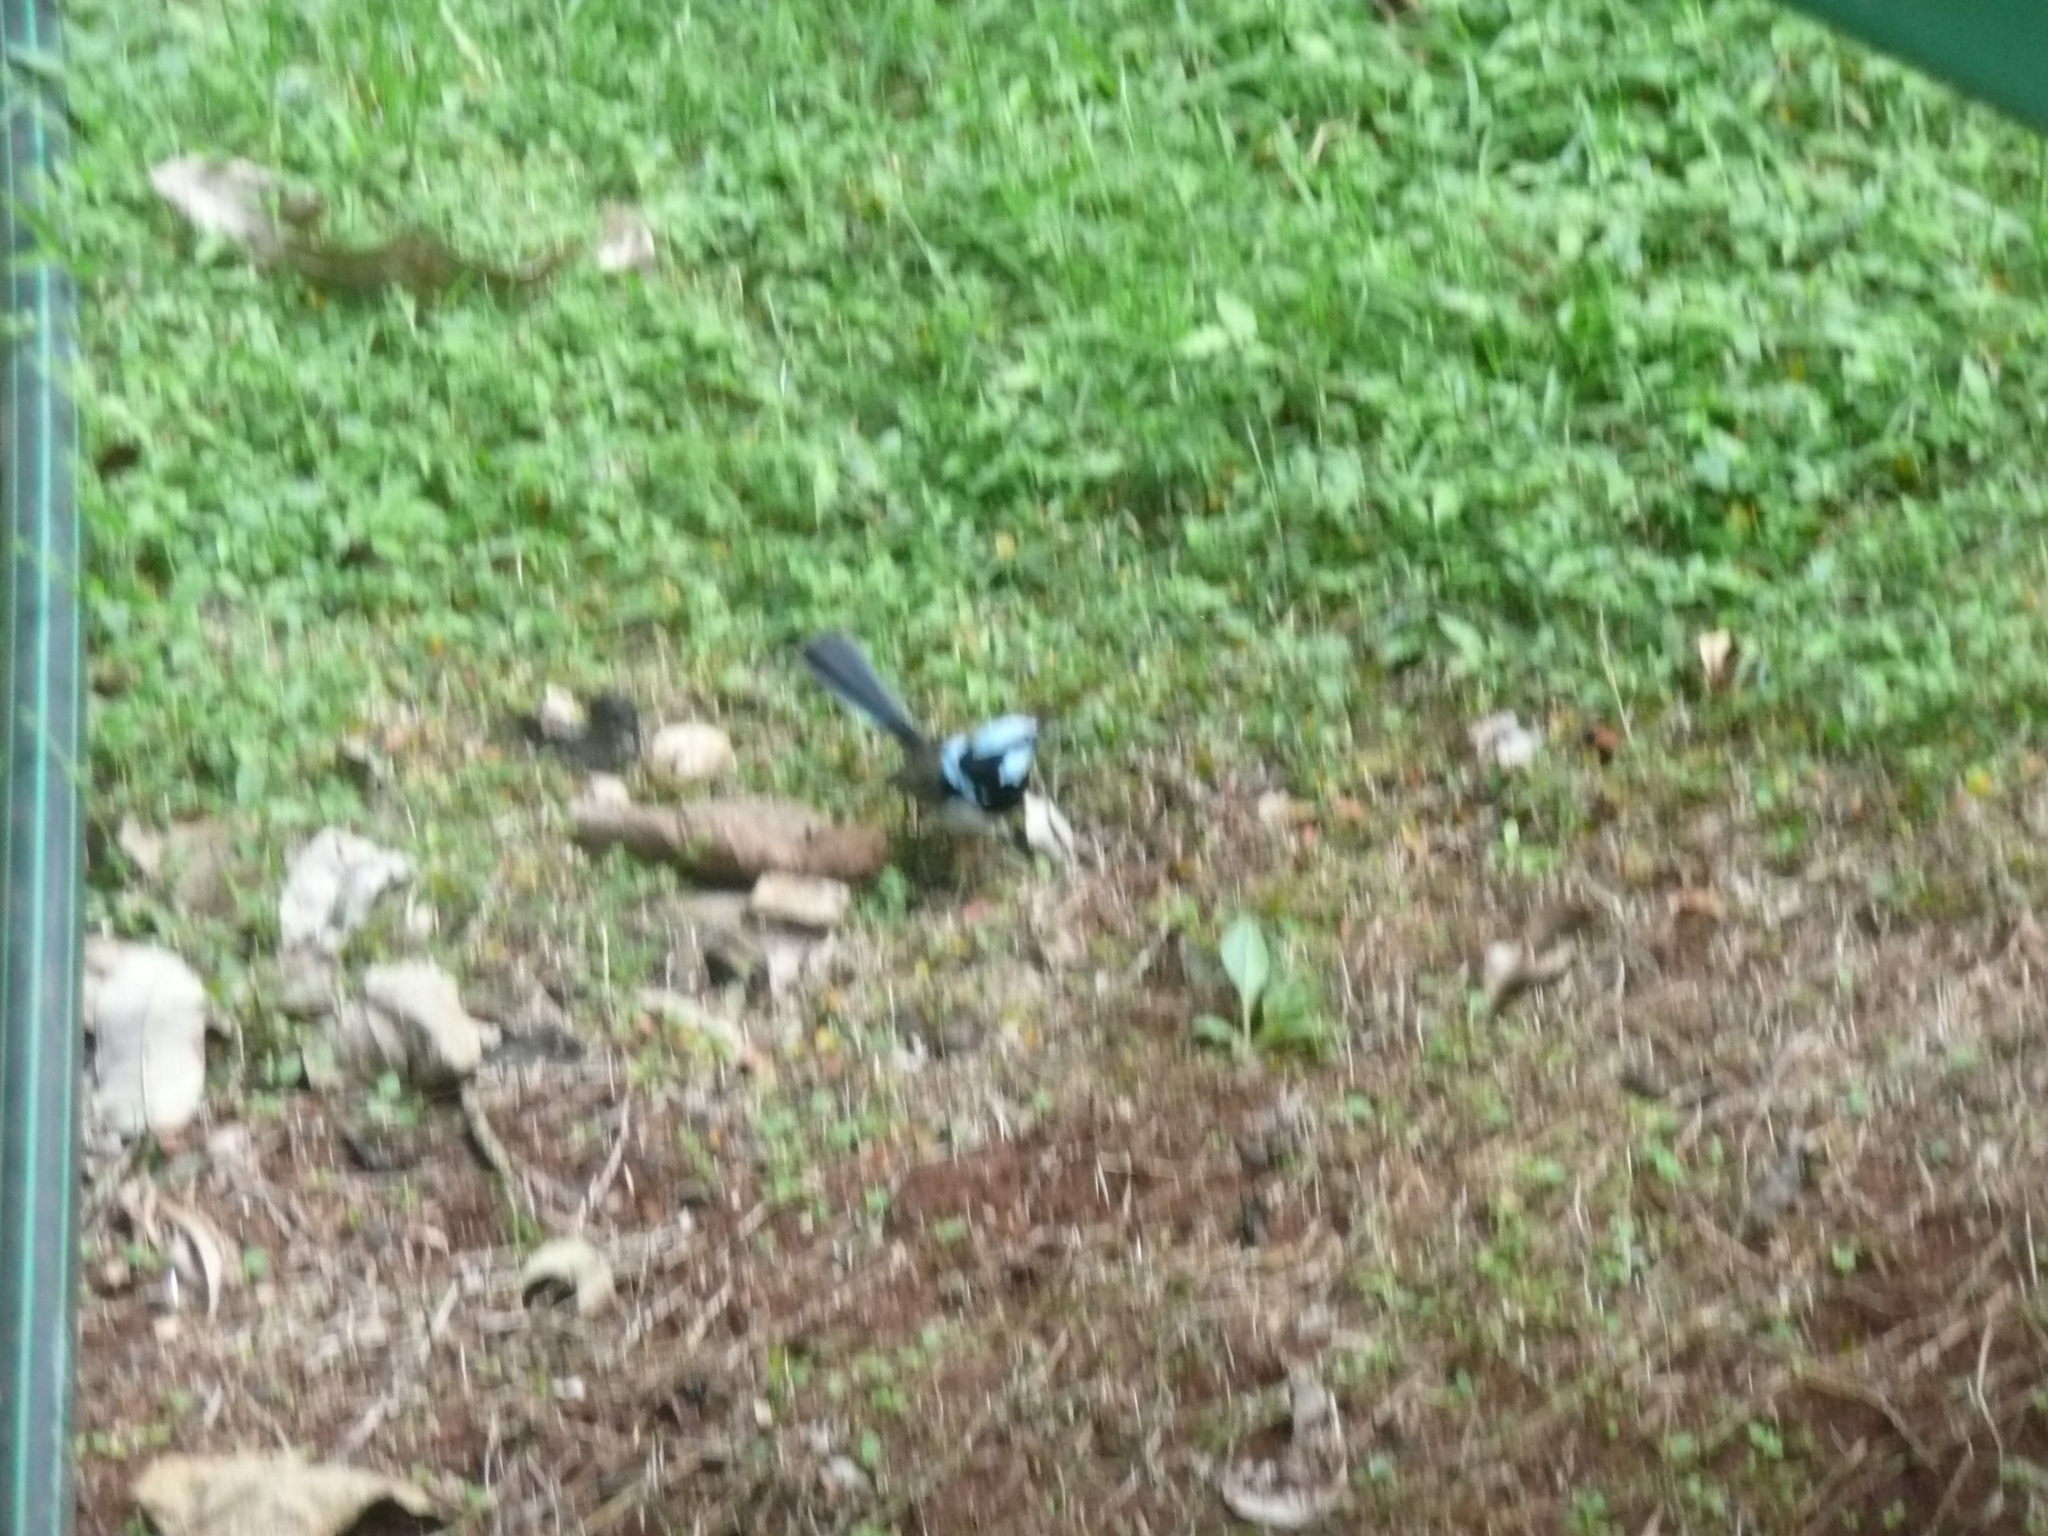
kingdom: Animalia
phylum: Chordata
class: Aves
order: Passeriformes
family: Maluridae
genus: Malurus
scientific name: Malurus cyaneus
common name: Superb fairywren
